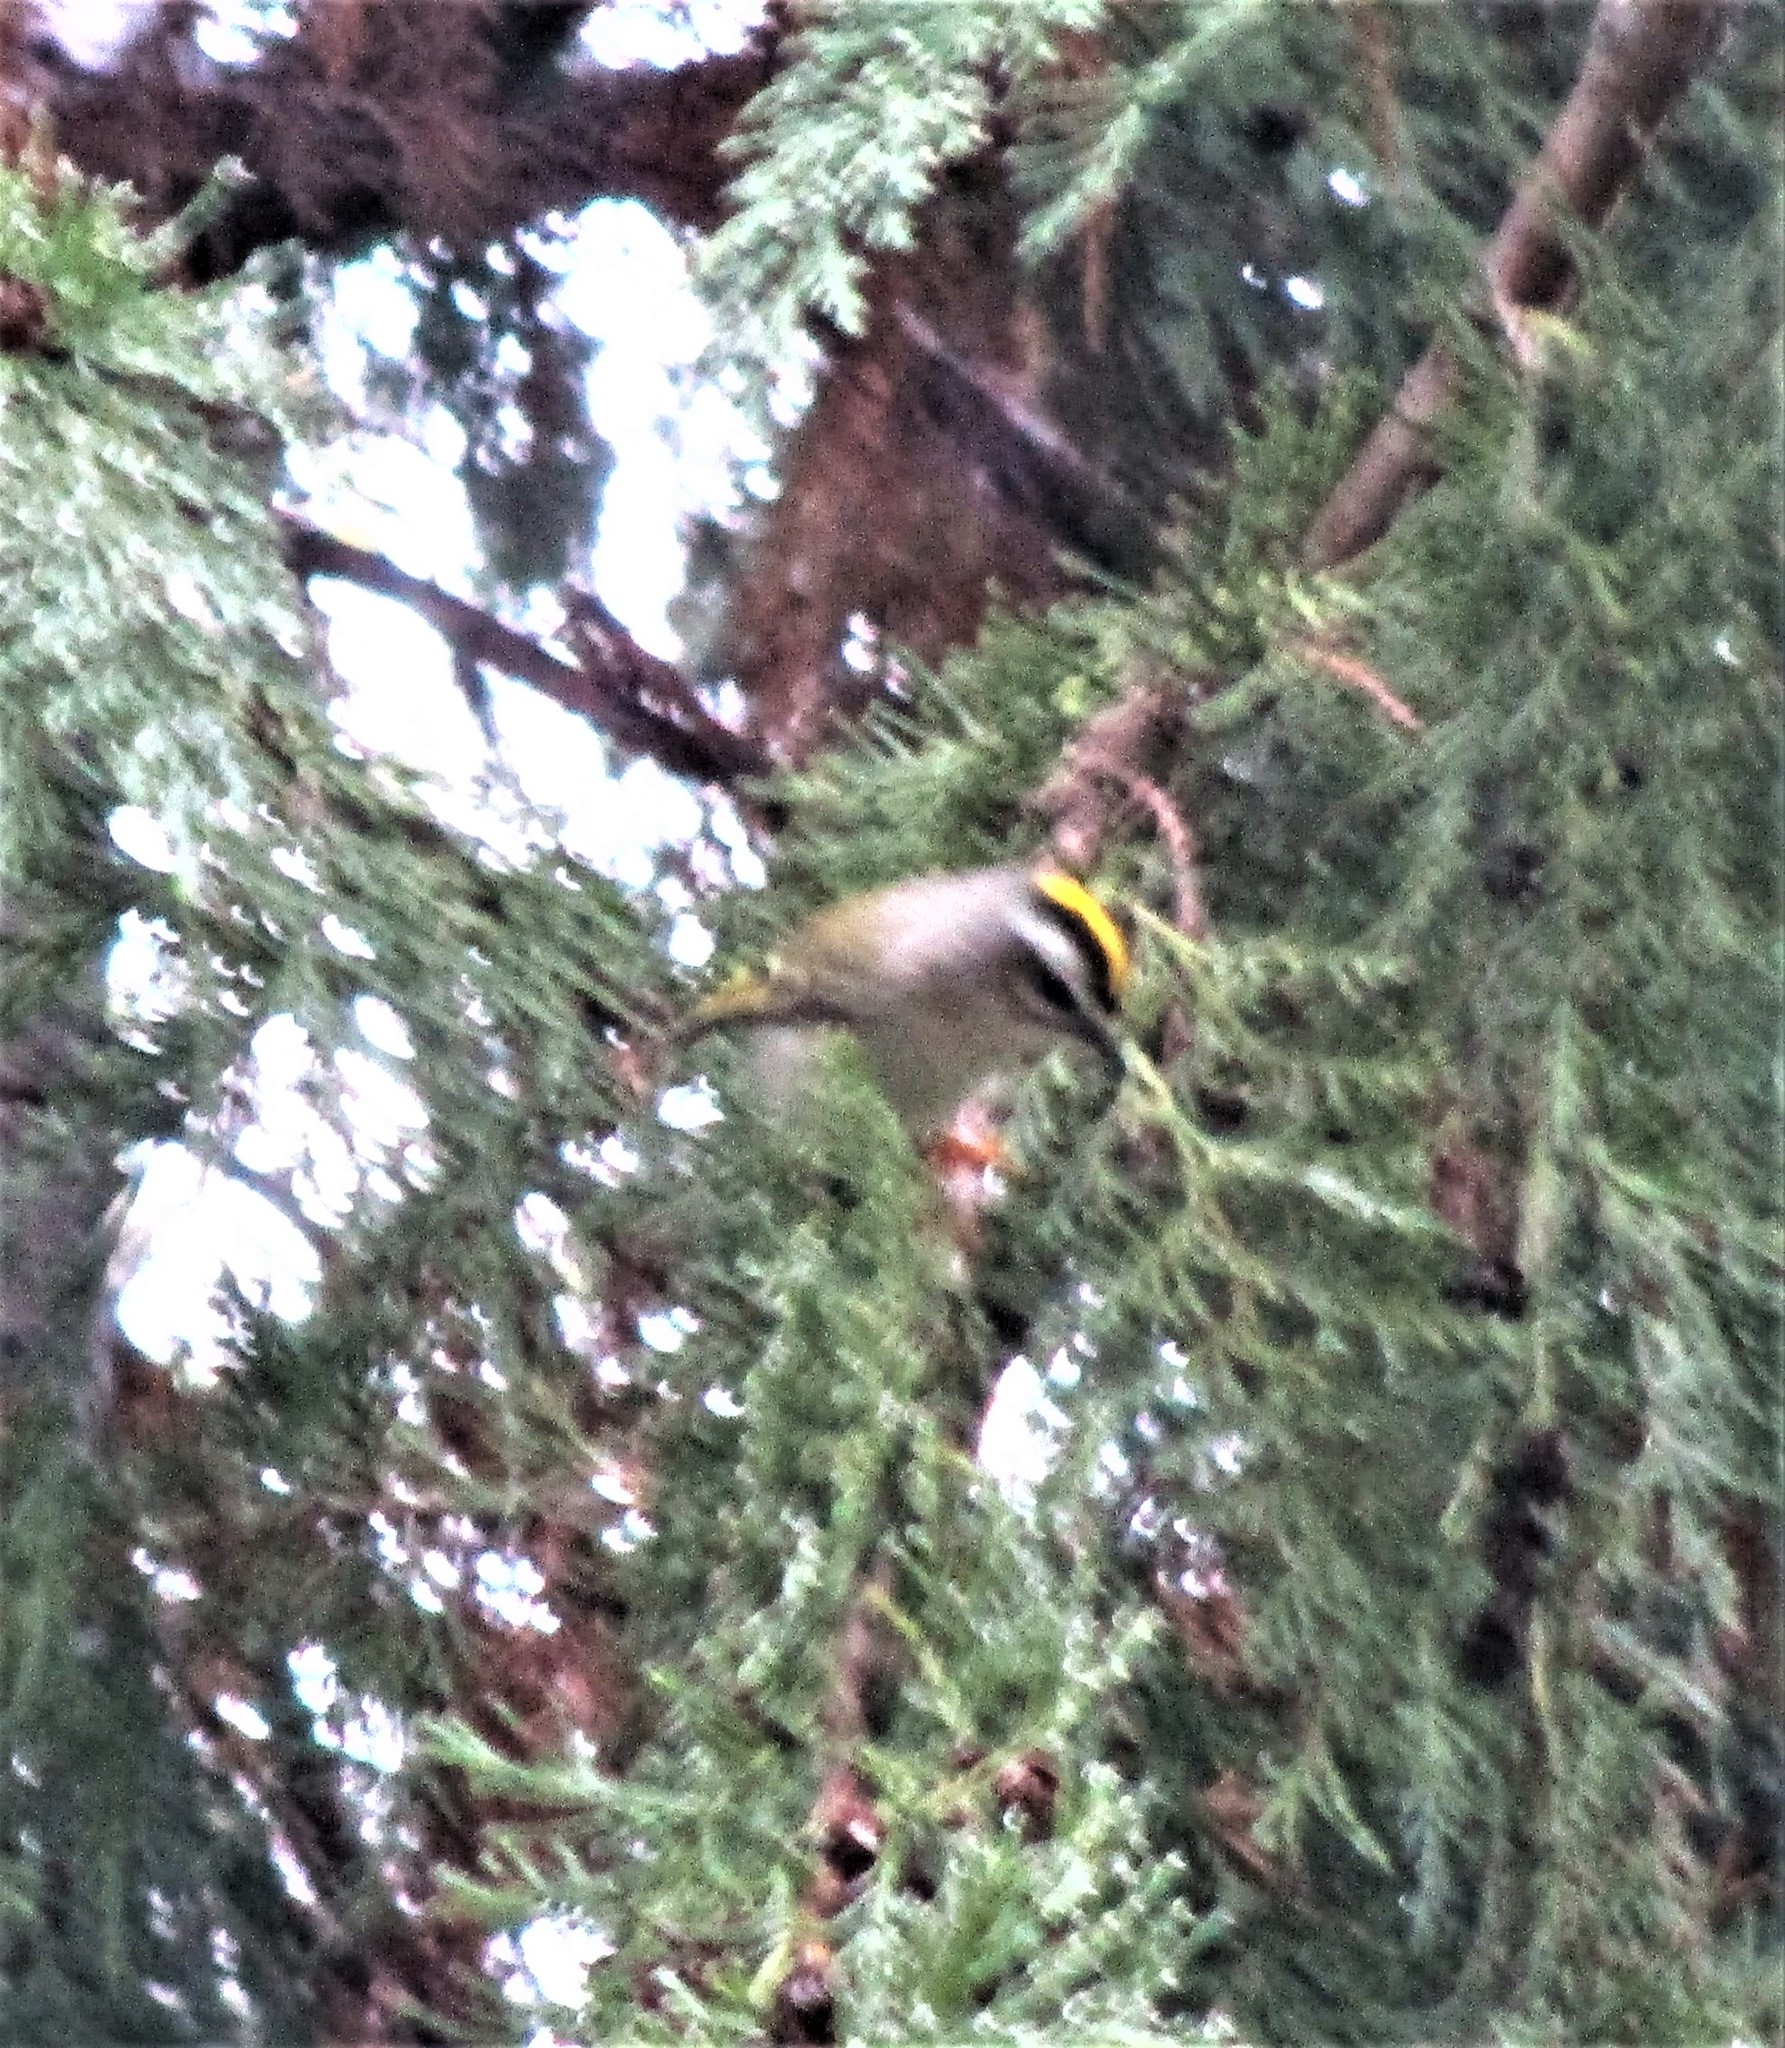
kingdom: Animalia
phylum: Chordata
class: Aves
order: Passeriformes
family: Regulidae
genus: Regulus
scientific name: Regulus satrapa
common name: Golden-crowned kinglet
